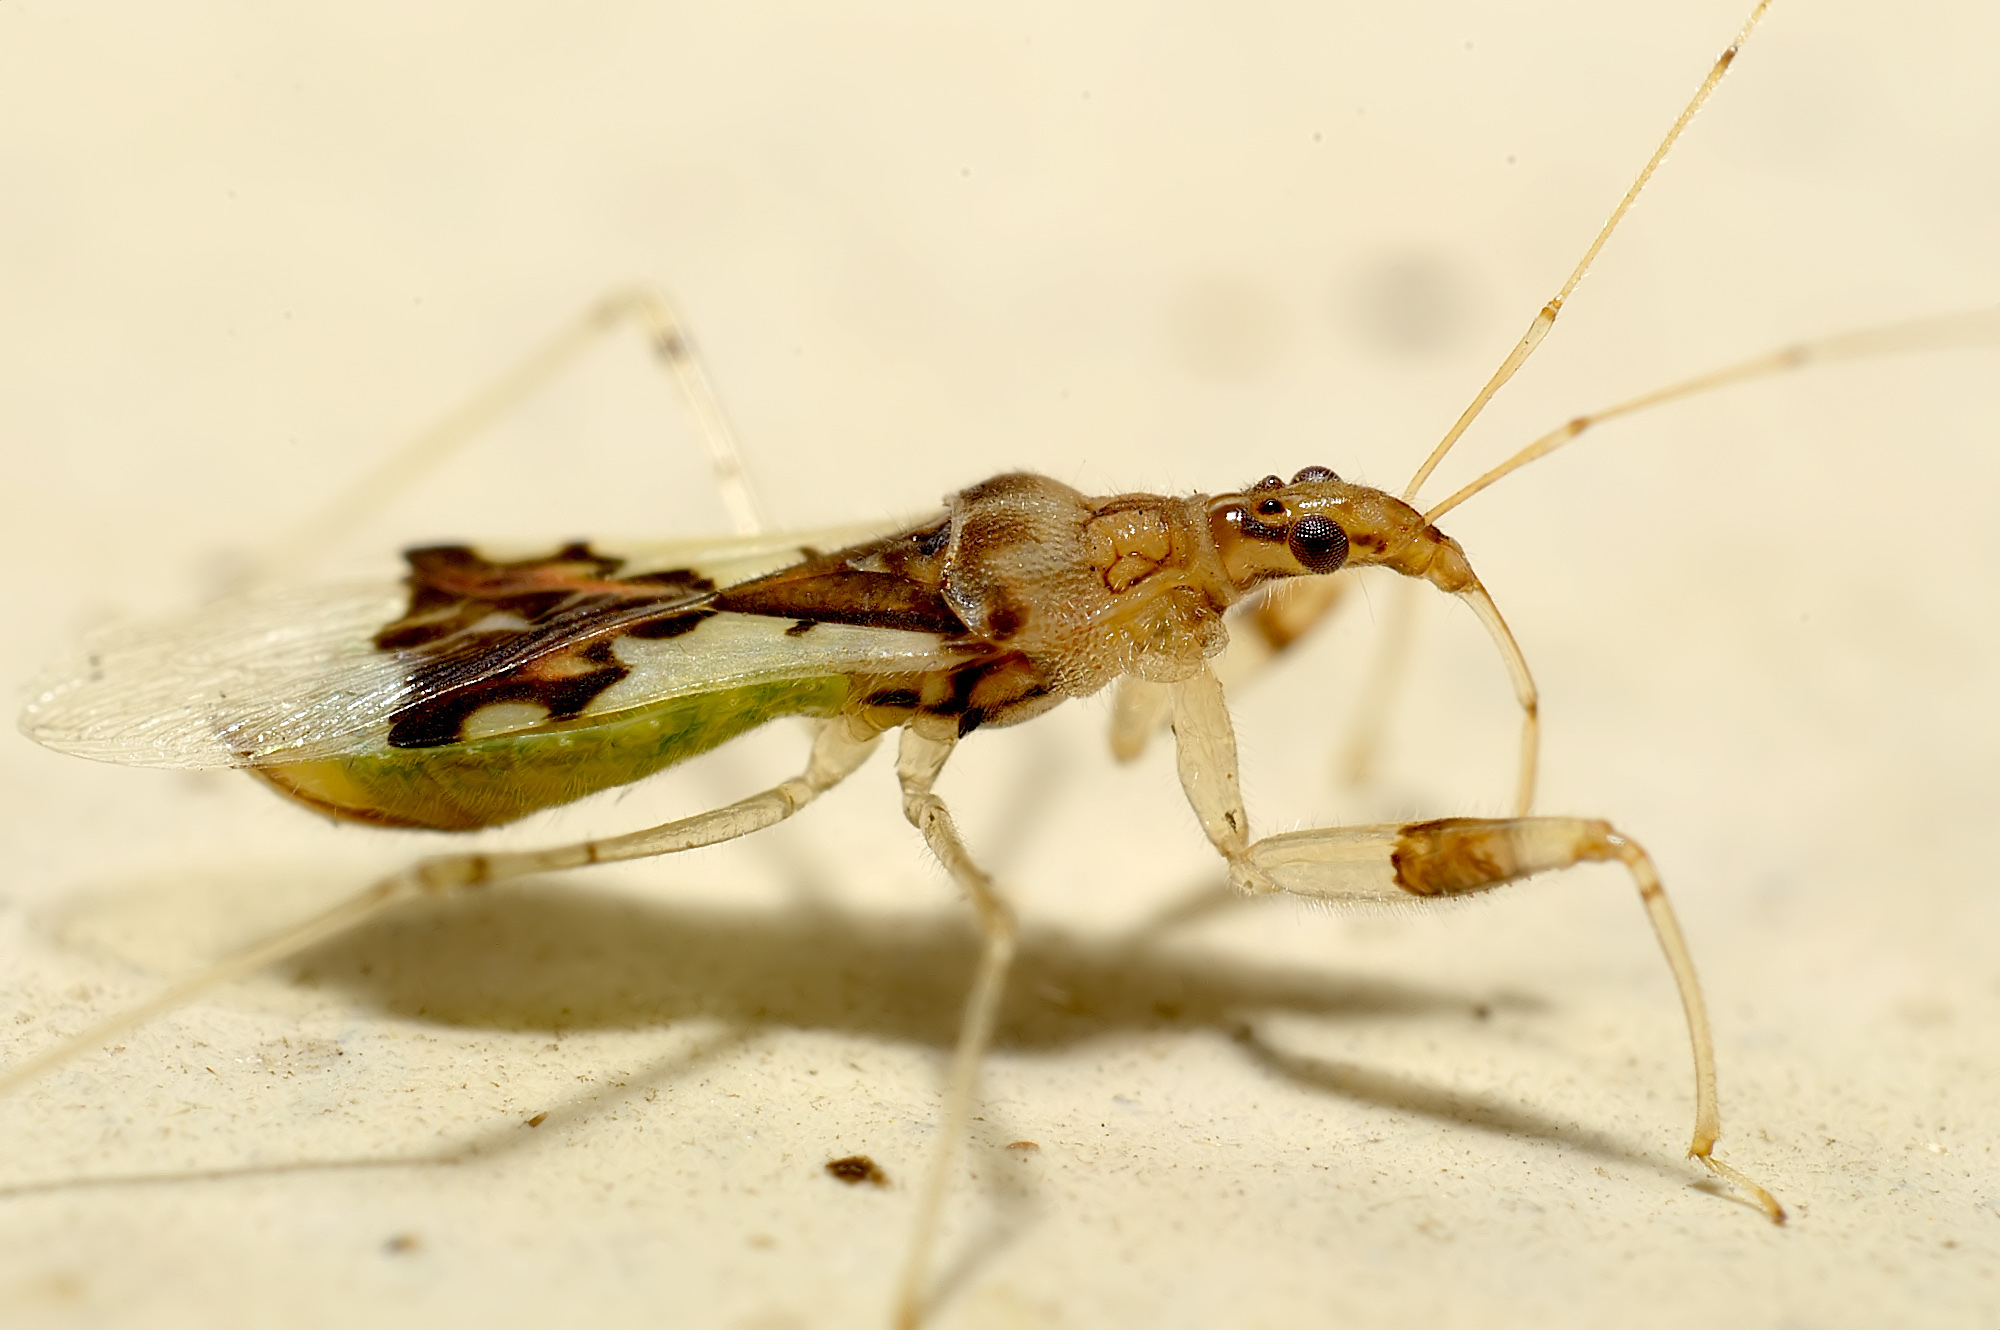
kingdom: Animalia
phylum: Arthropoda
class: Insecta
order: Hemiptera
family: Nabidae
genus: Gorpis
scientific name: Gorpis
